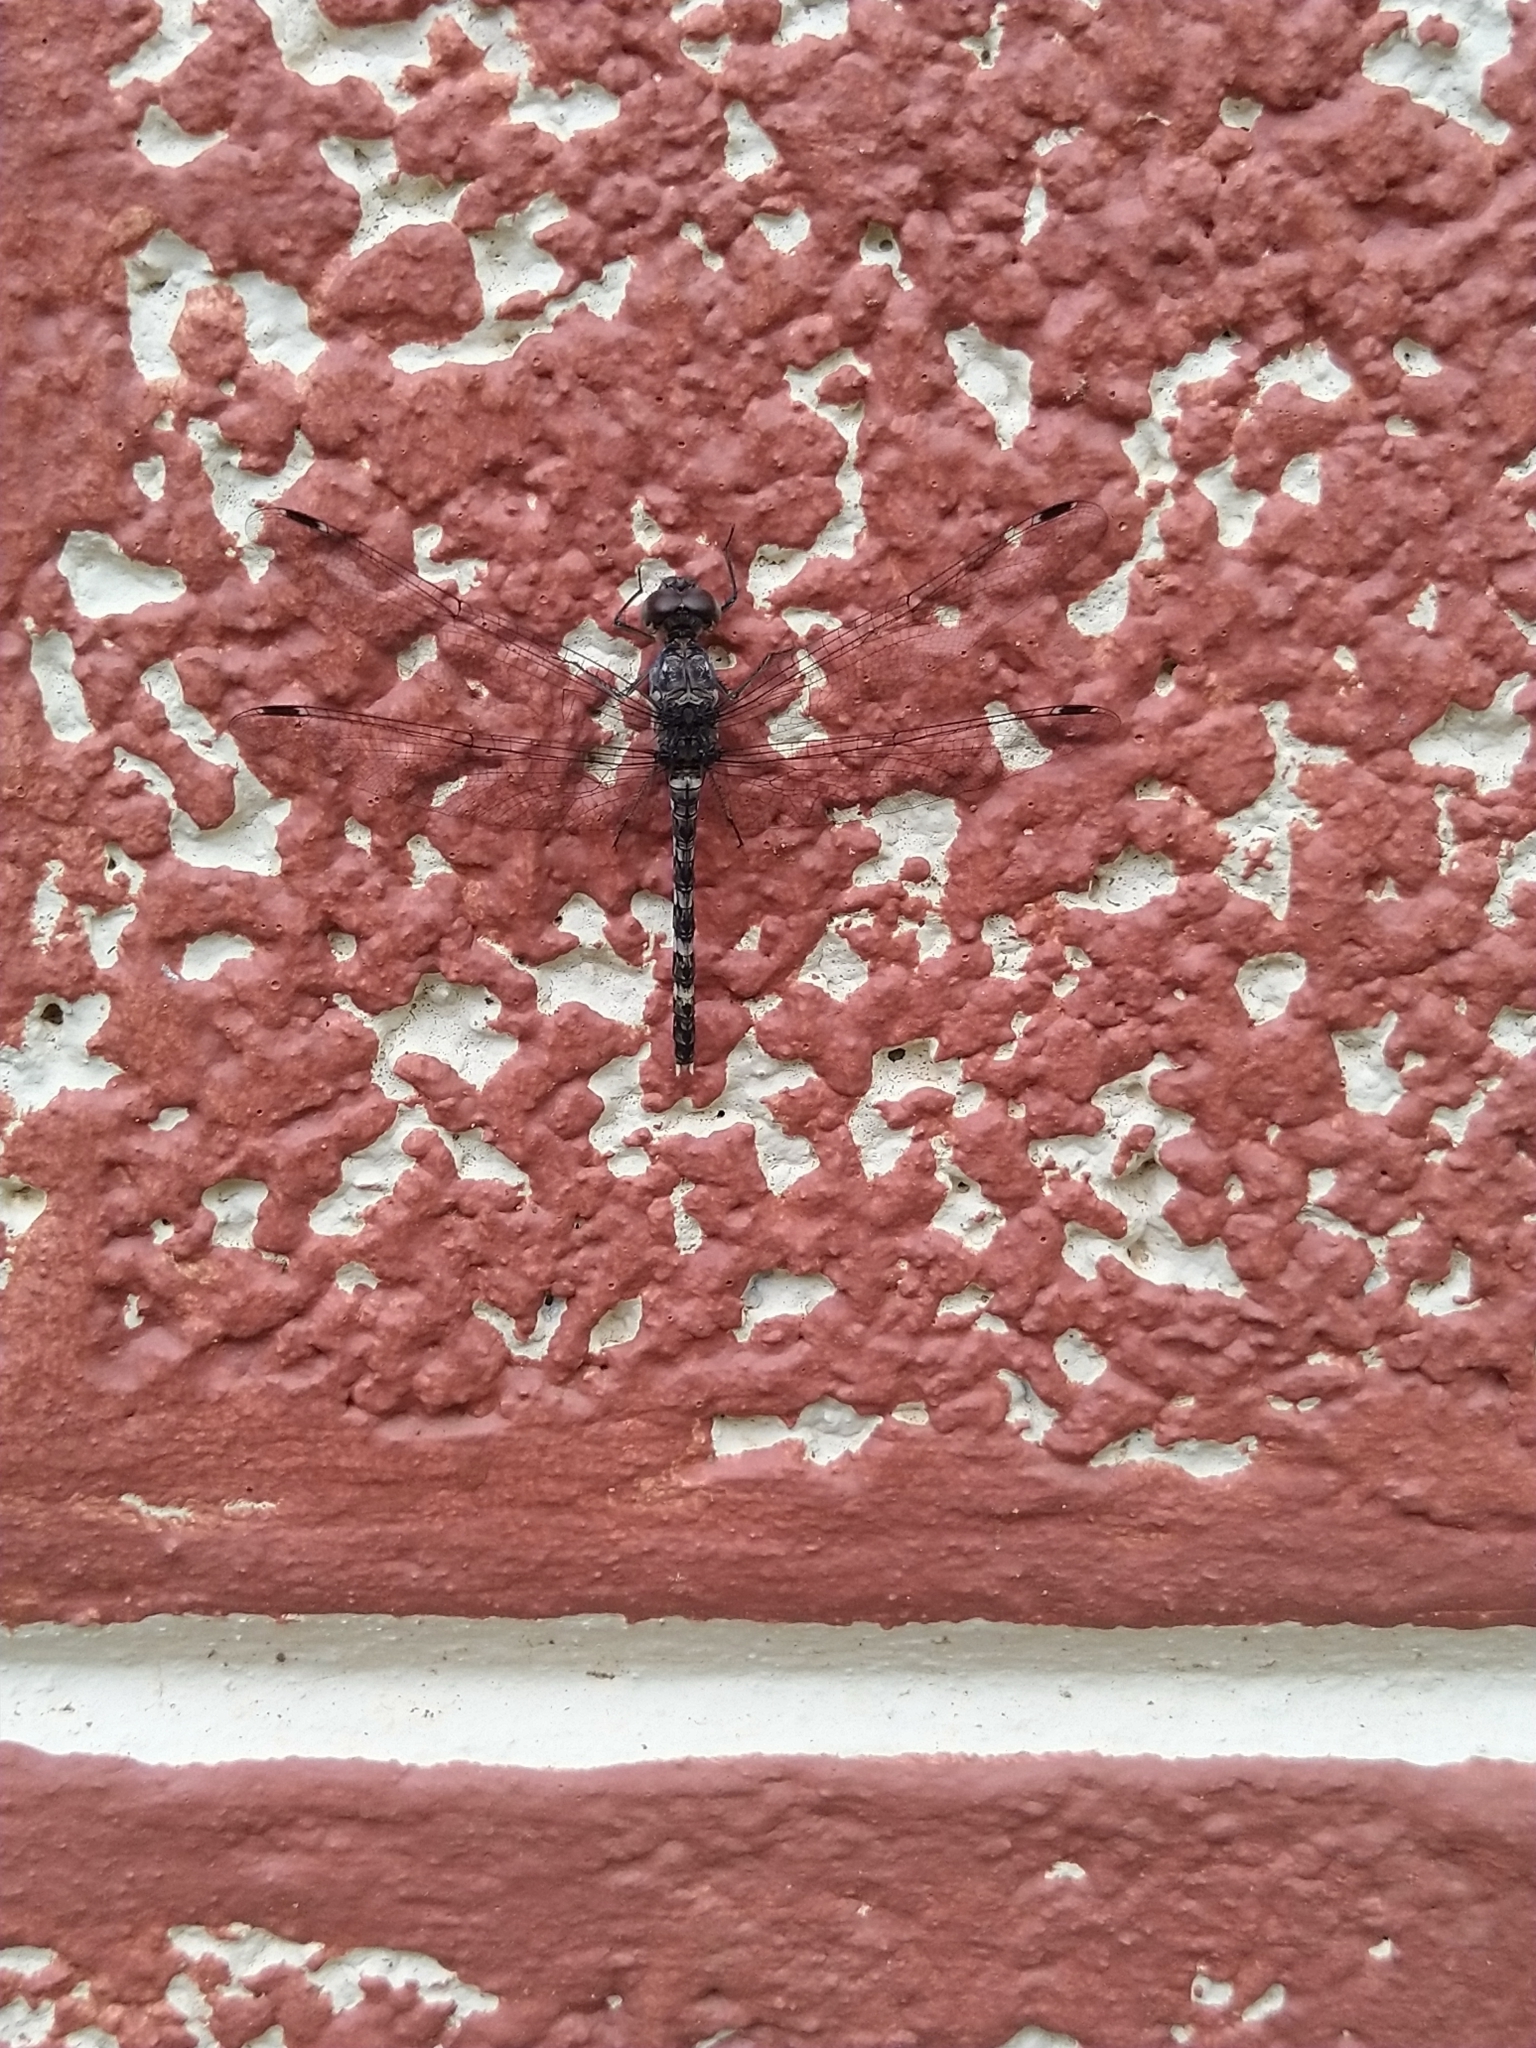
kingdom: Animalia
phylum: Arthropoda
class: Insecta
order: Odonata
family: Libellulidae
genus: Bradinopyga
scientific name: Bradinopyga geminata
